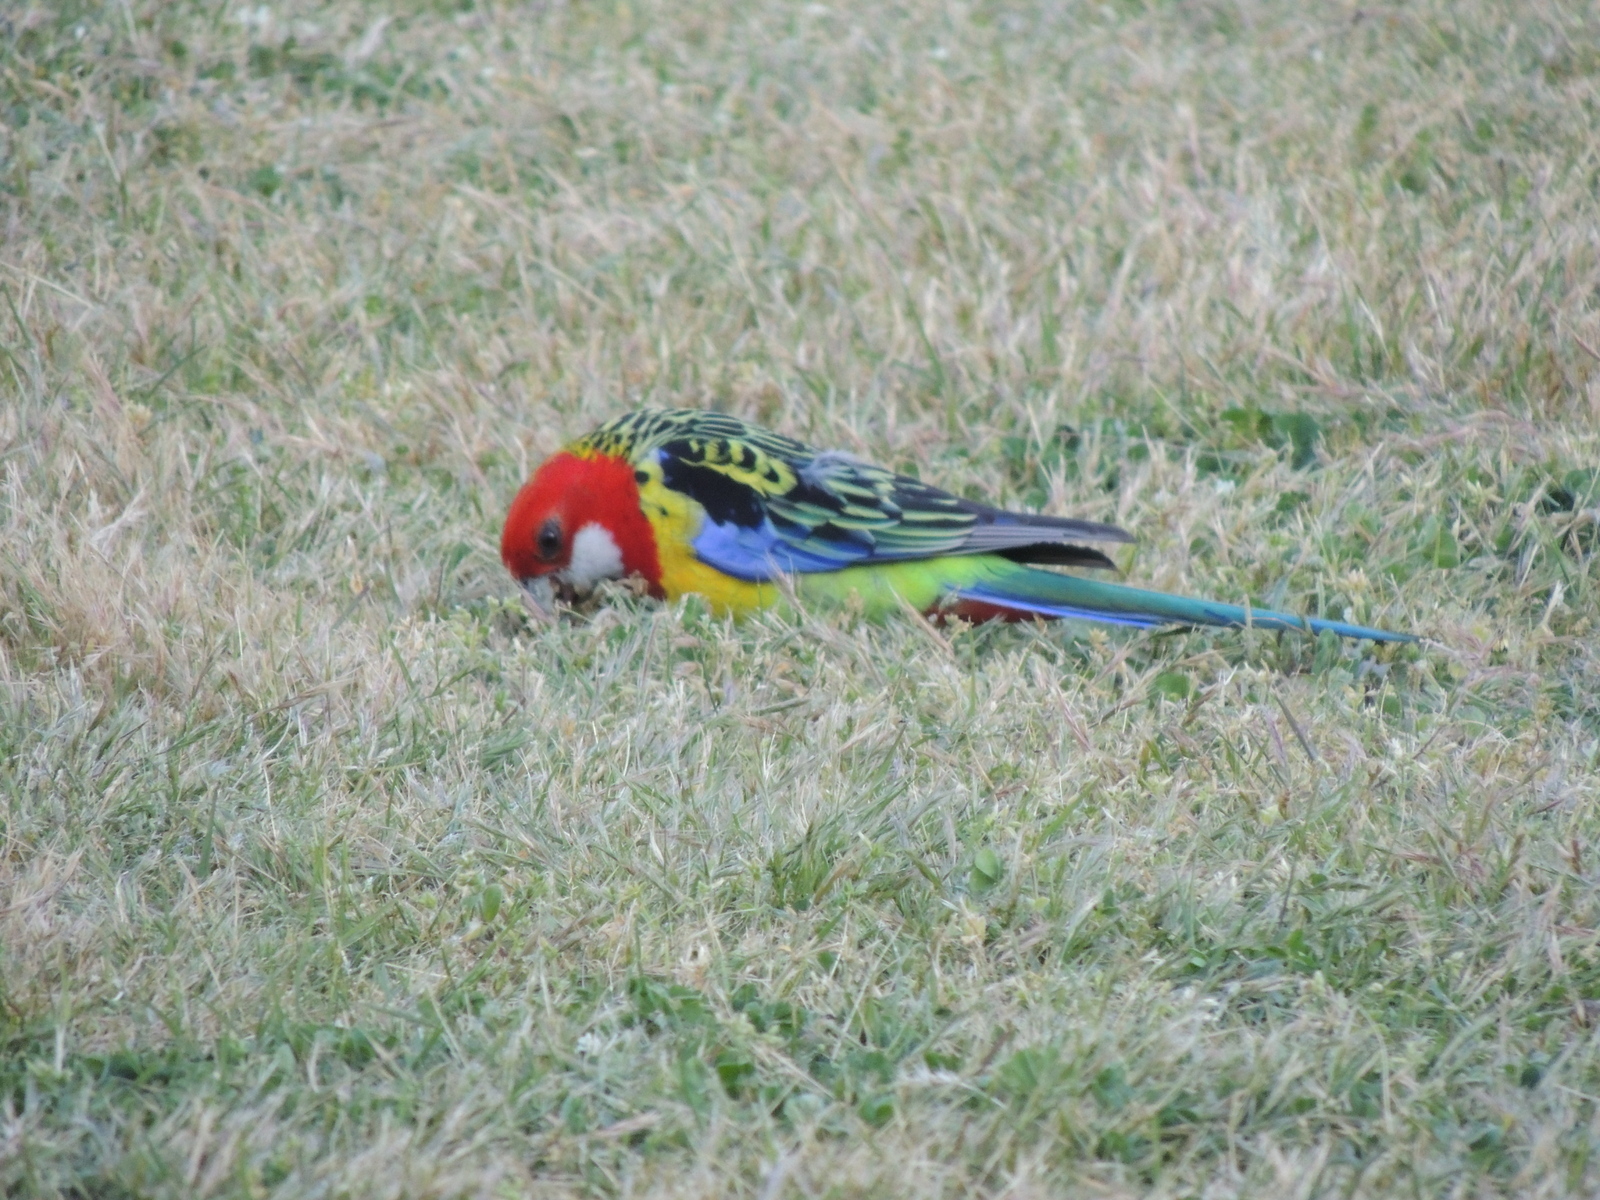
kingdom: Animalia
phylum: Chordata
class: Aves
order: Psittaciformes
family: Psittacidae
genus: Platycercus
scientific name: Platycercus eximius
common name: Eastern rosella
